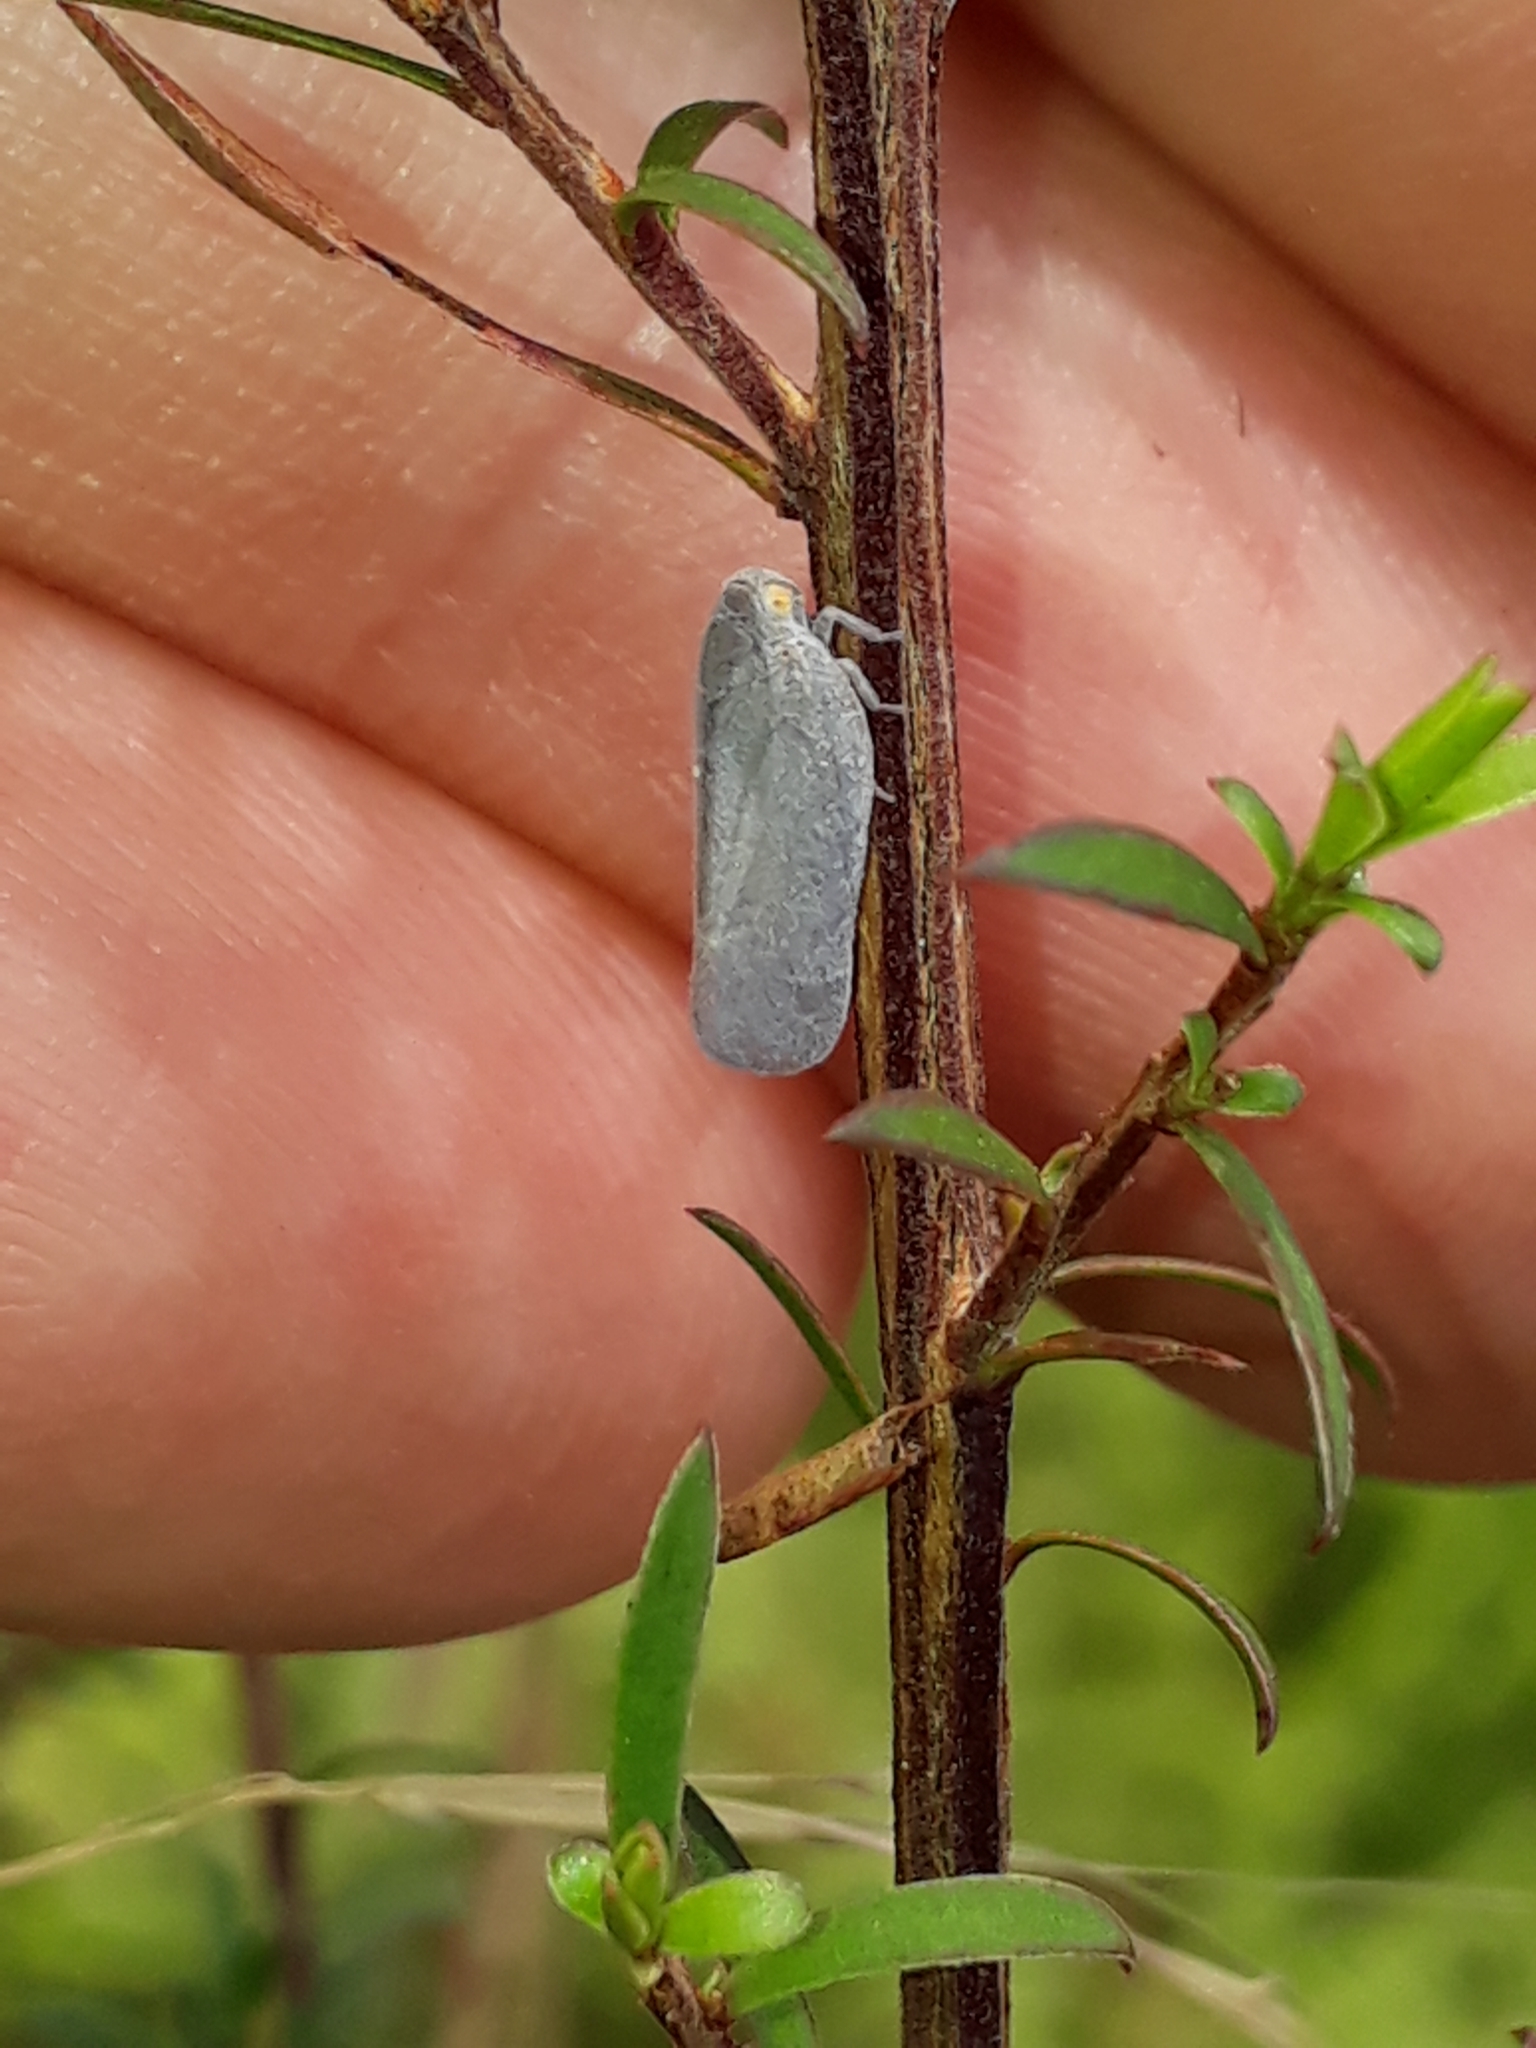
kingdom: Animalia
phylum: Arthropoda
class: Insecta
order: Hemiptera
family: Flatidae
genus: Anzora
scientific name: Anzora unicolor
